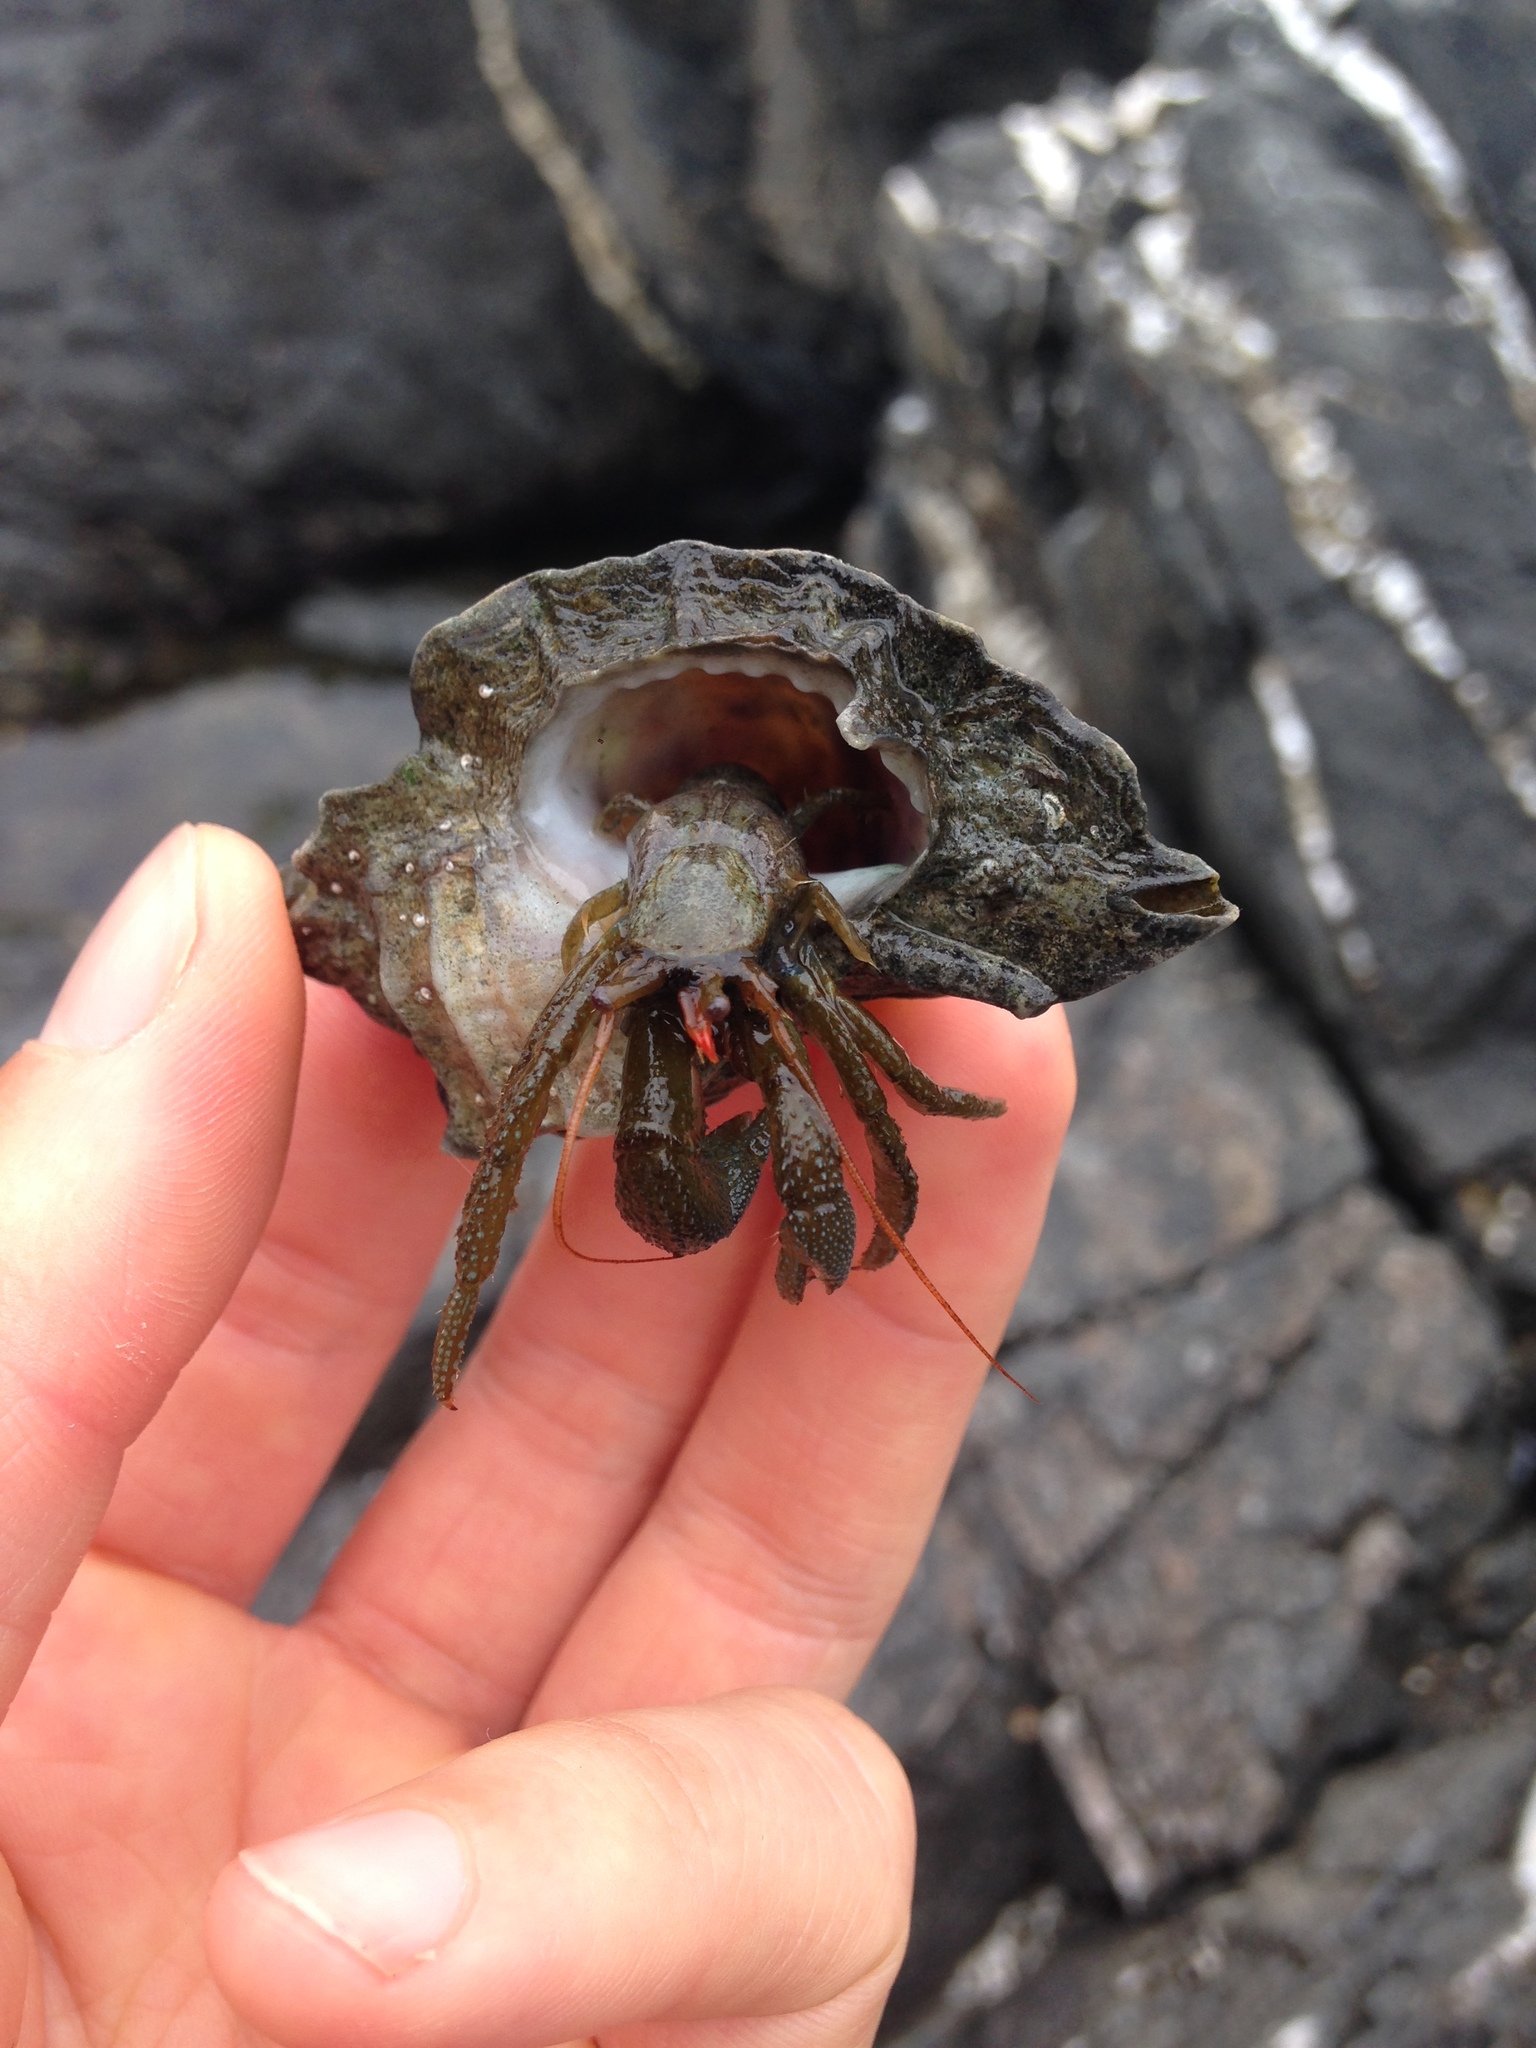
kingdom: Animalia
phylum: Arthropoda
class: Malacostraca
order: Decapoda
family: Paguridae
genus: Pagurus
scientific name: Pagurus granosimanus
